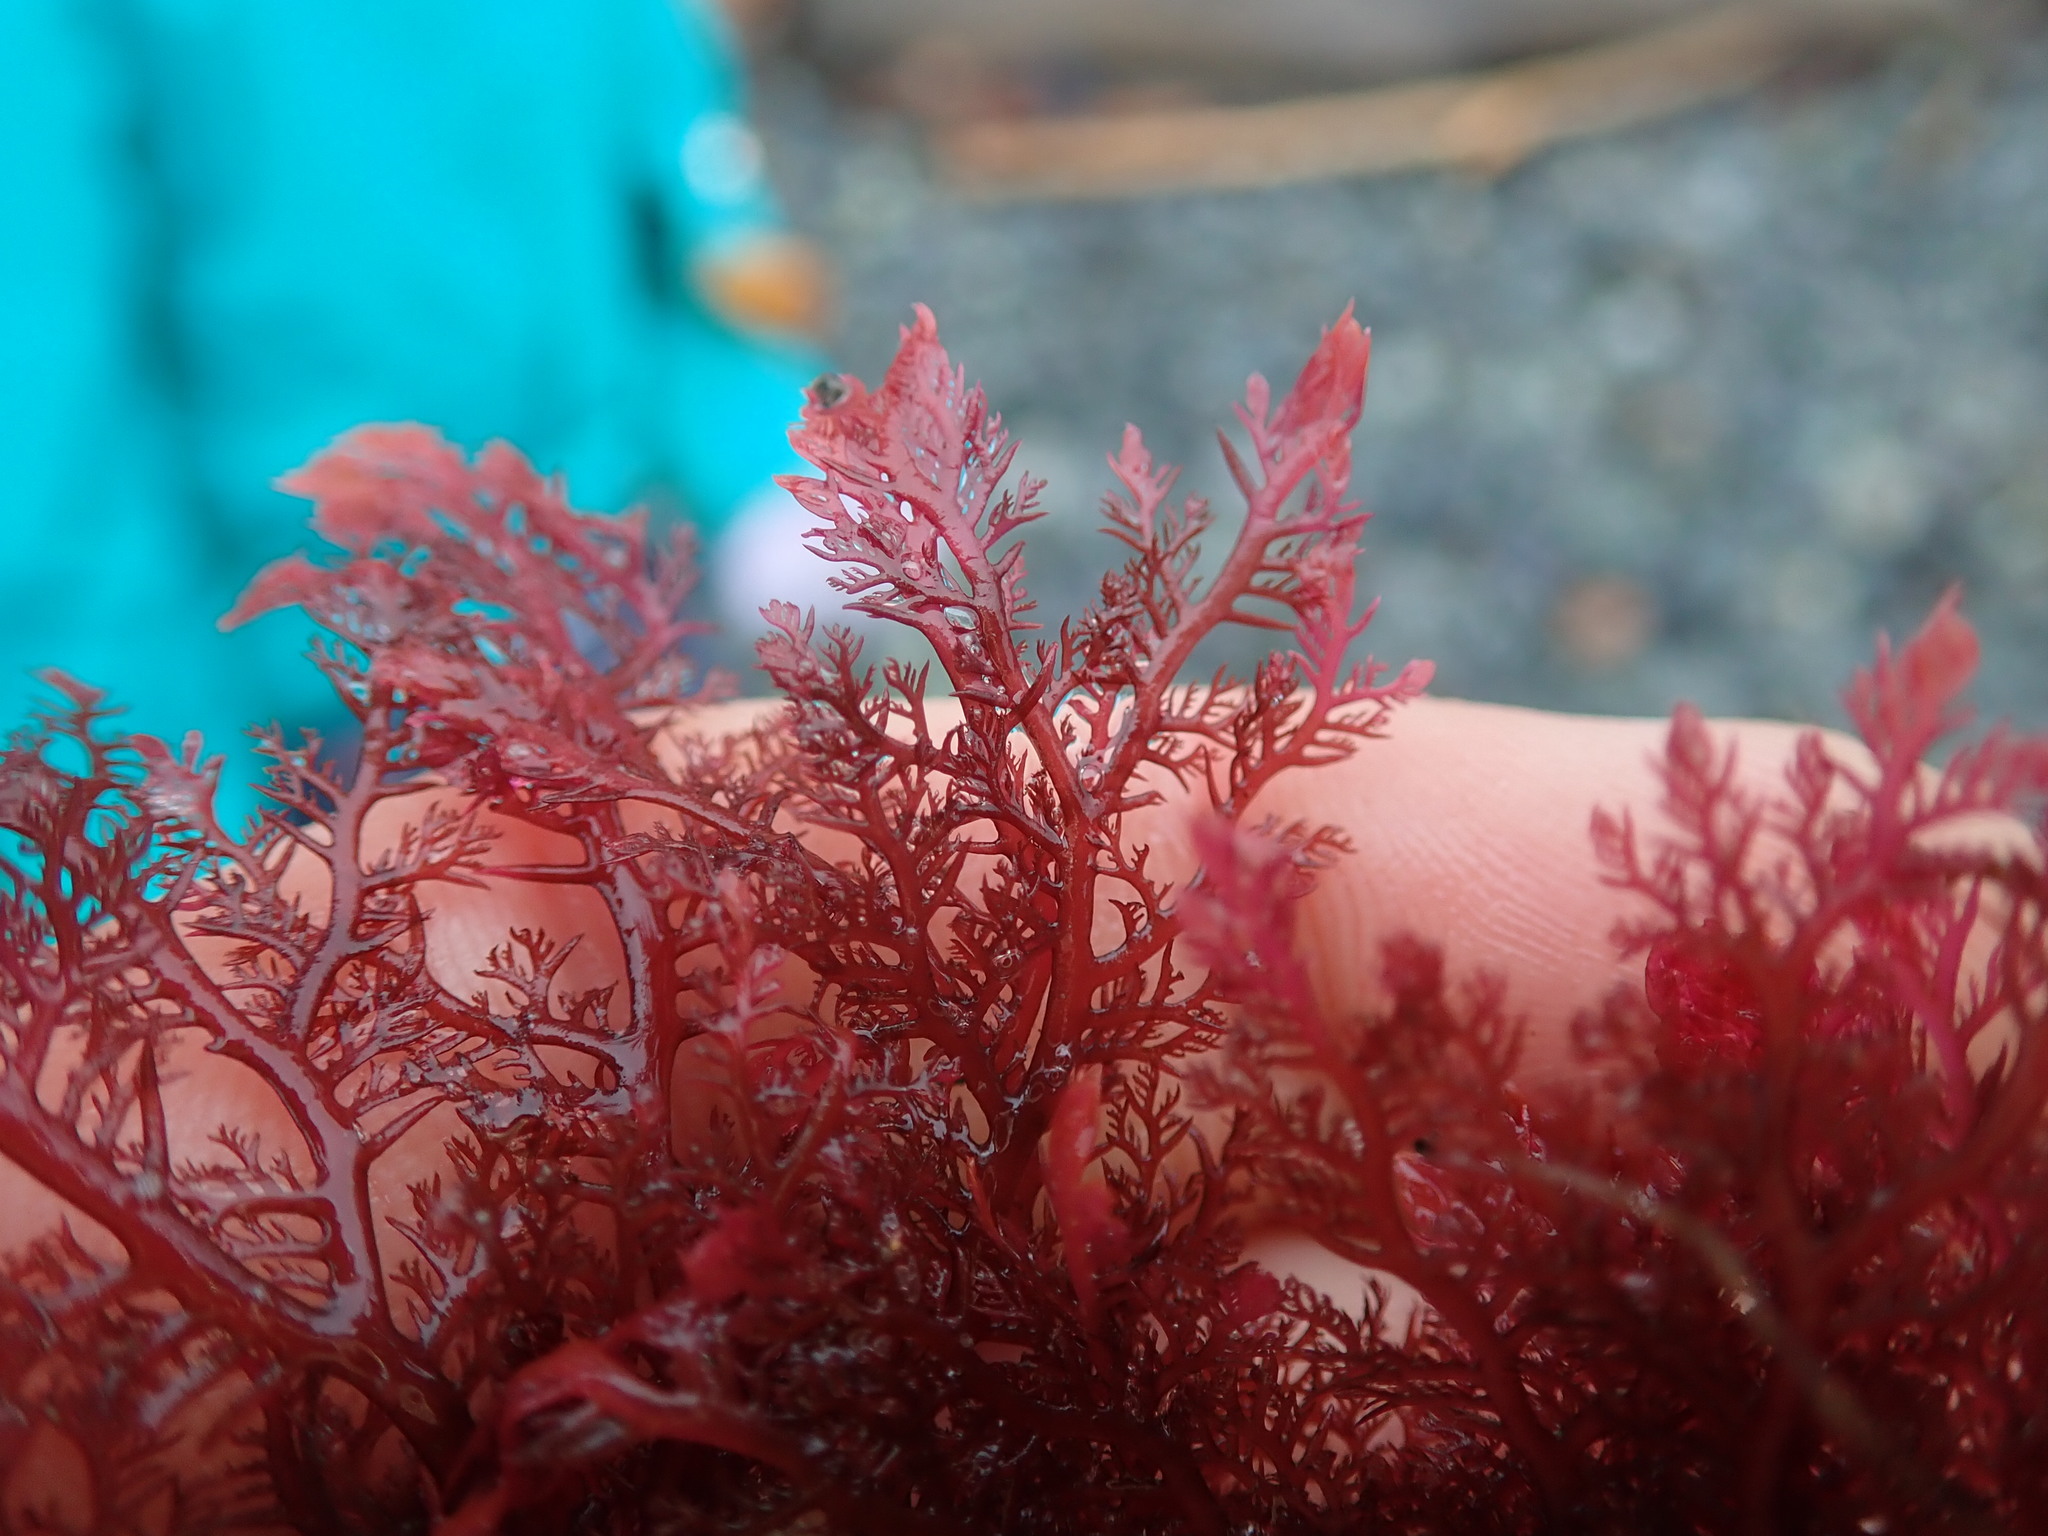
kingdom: Plantae
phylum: Rhodophyta
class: Florideophyceae
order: Plocamiales
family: Plocamiaceae
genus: Plocamium
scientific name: Plocamium cartilagineum
